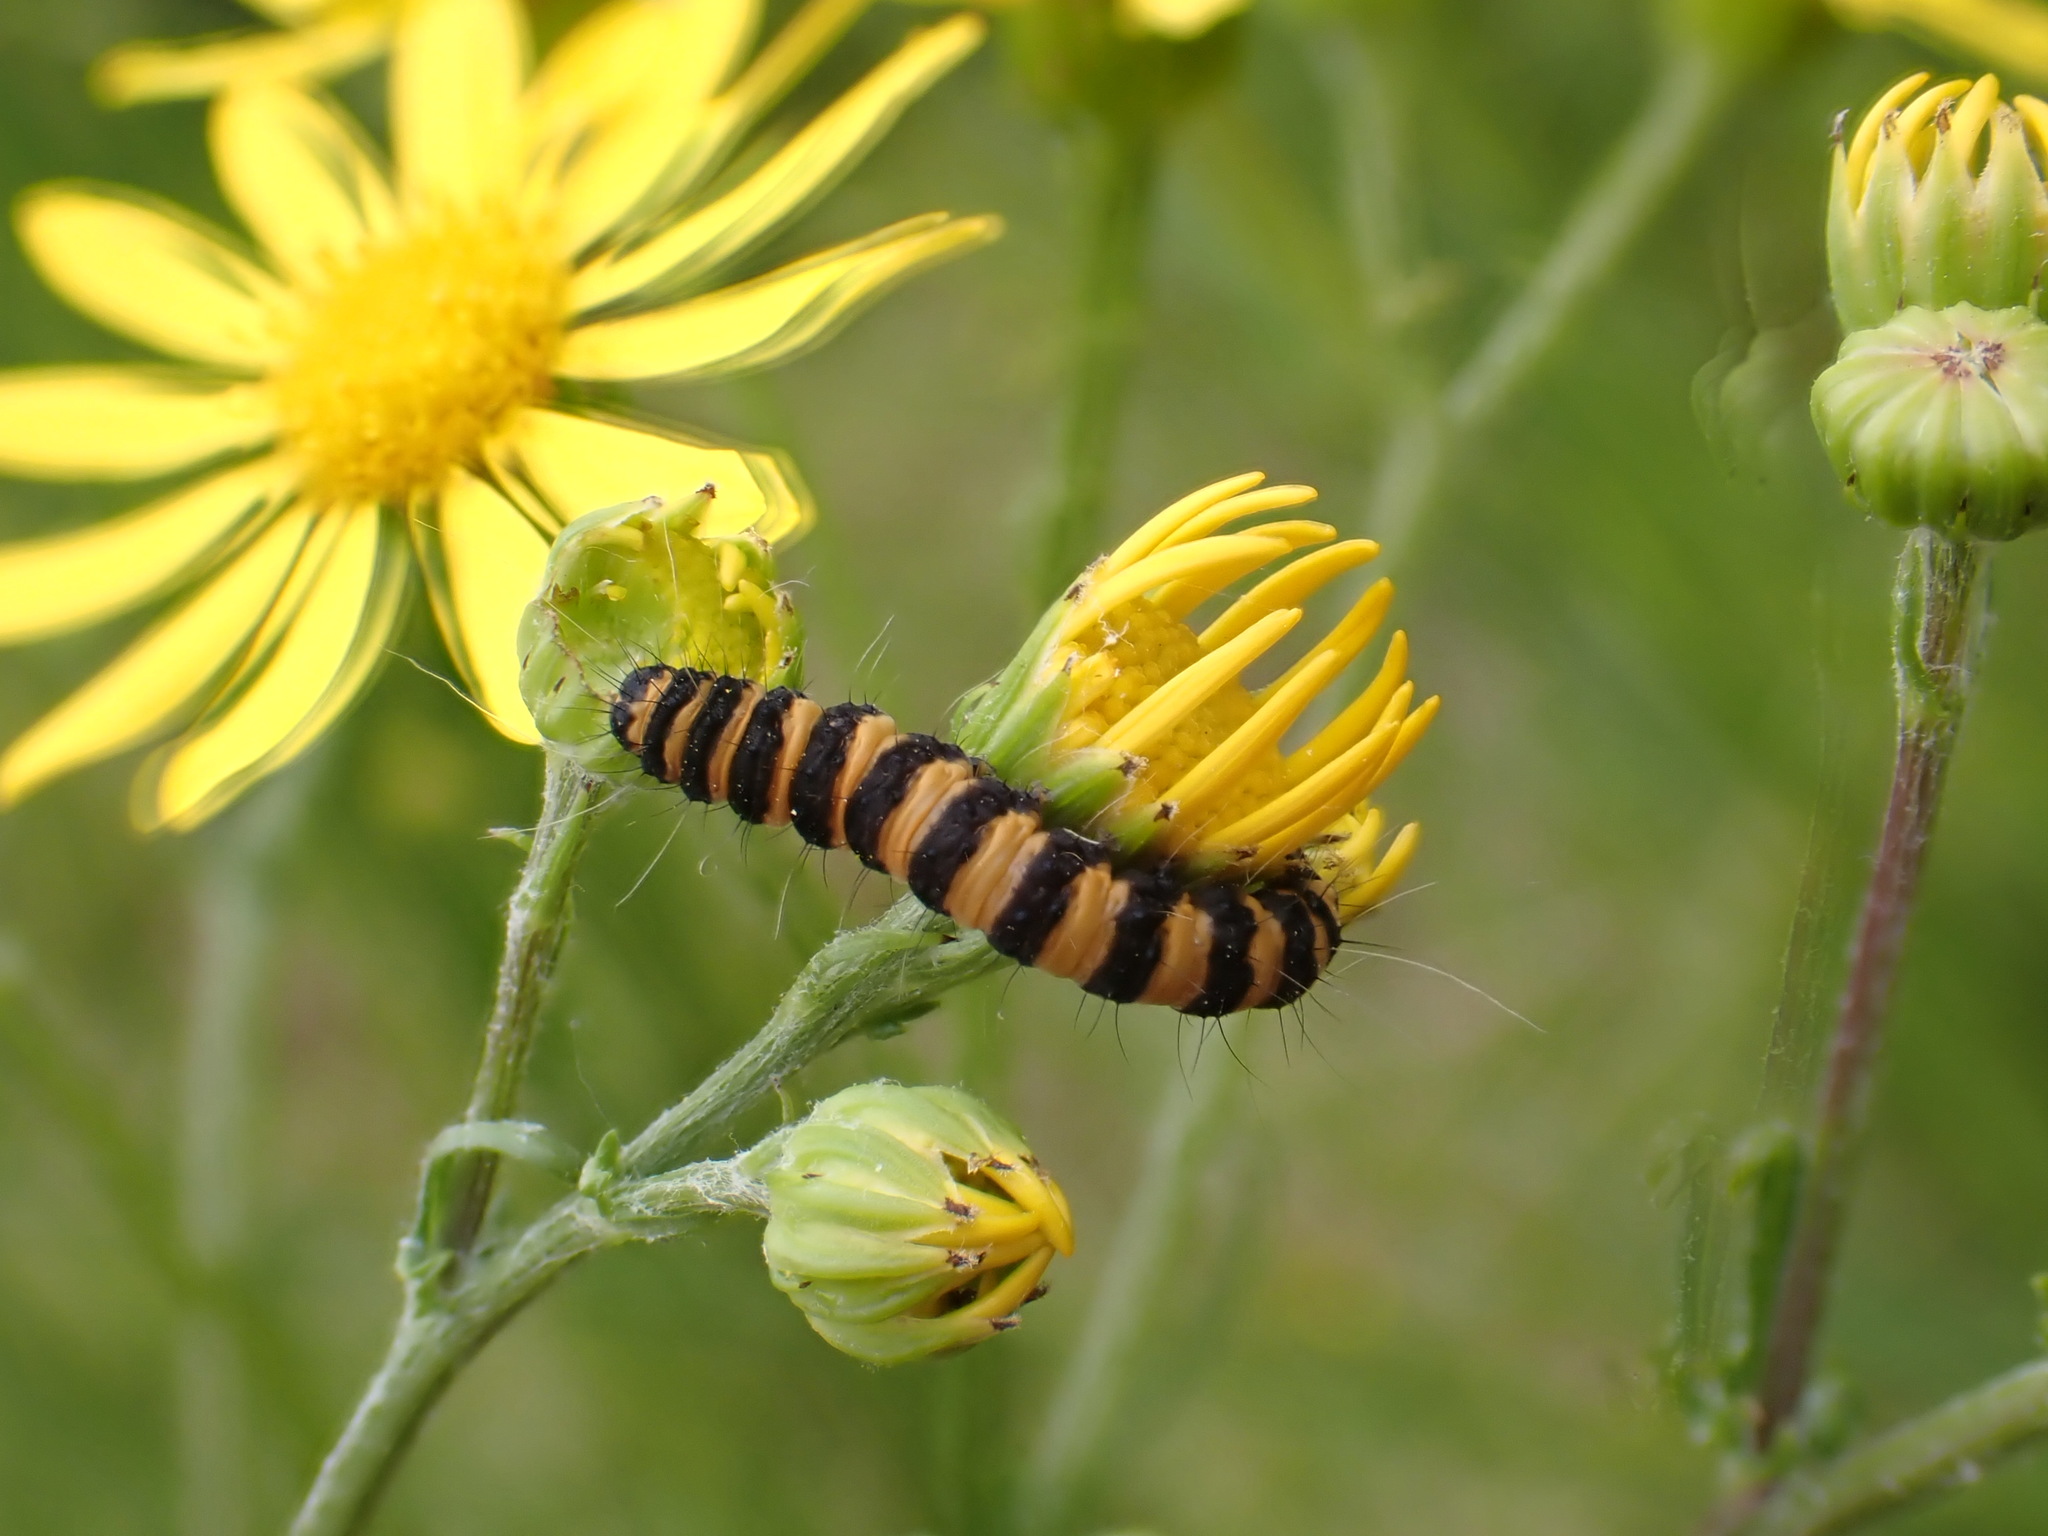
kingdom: Animalia
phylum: Arthropoda
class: Insecta
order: Lepidoptera
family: Erebidae
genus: Tyria
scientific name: Tyria jacobaeae
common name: Cinnabar
